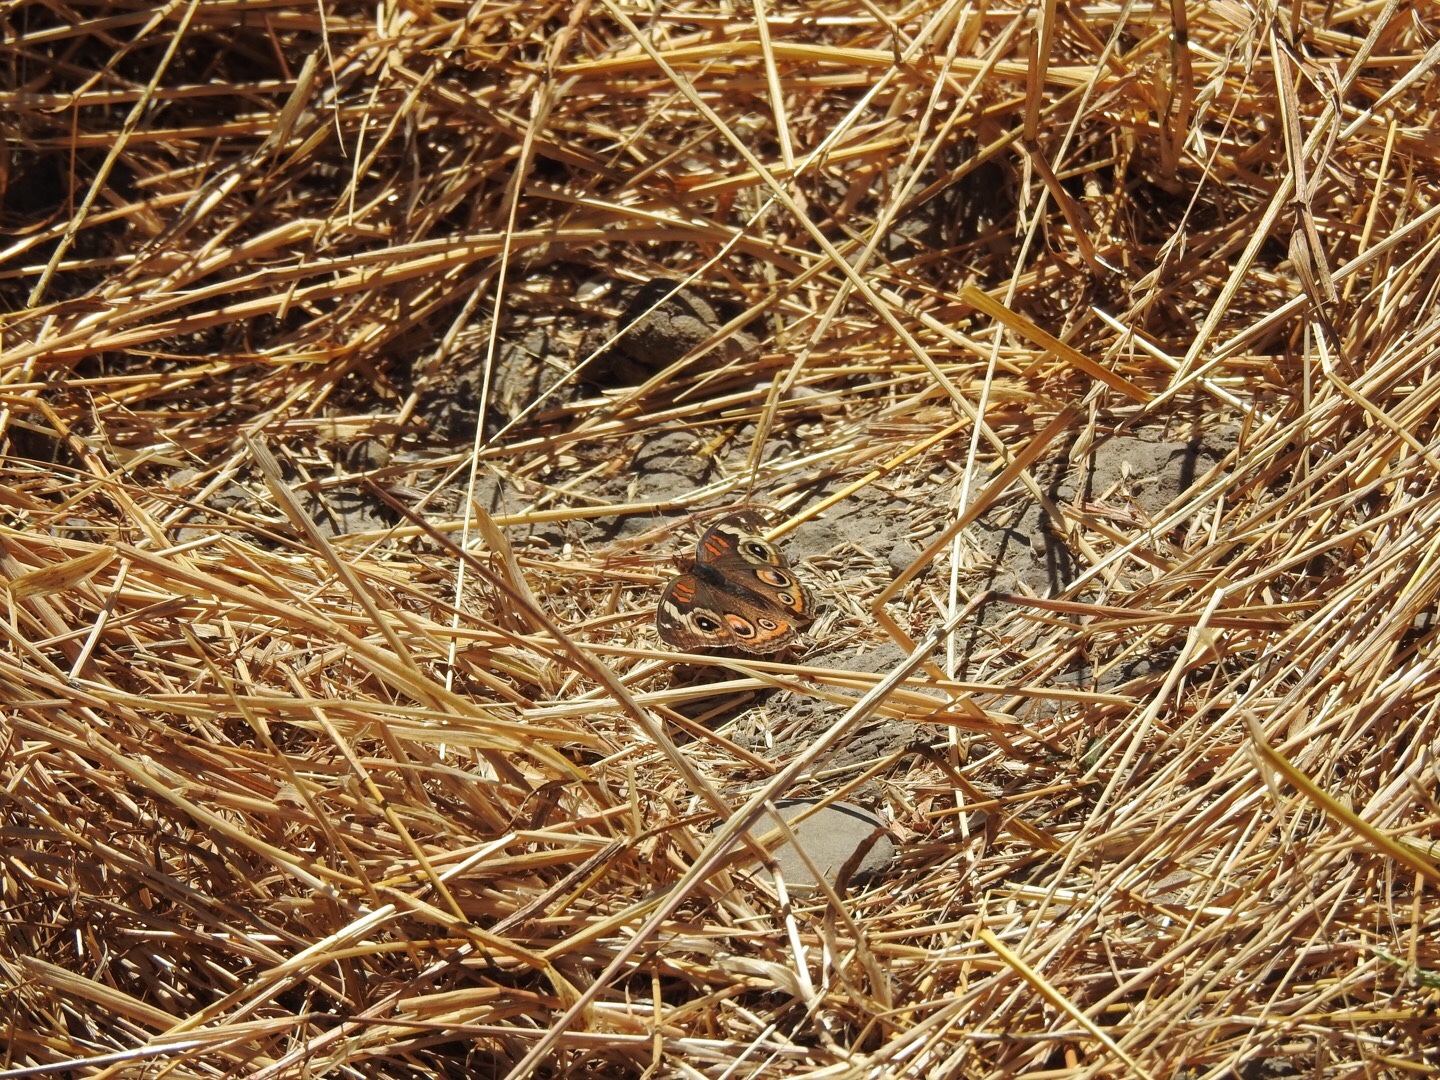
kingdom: Animalia
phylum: Arthropoda
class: Insecta
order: Lepidoptera
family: Nymphalidae
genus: Junonia
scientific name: Junonia grisea
